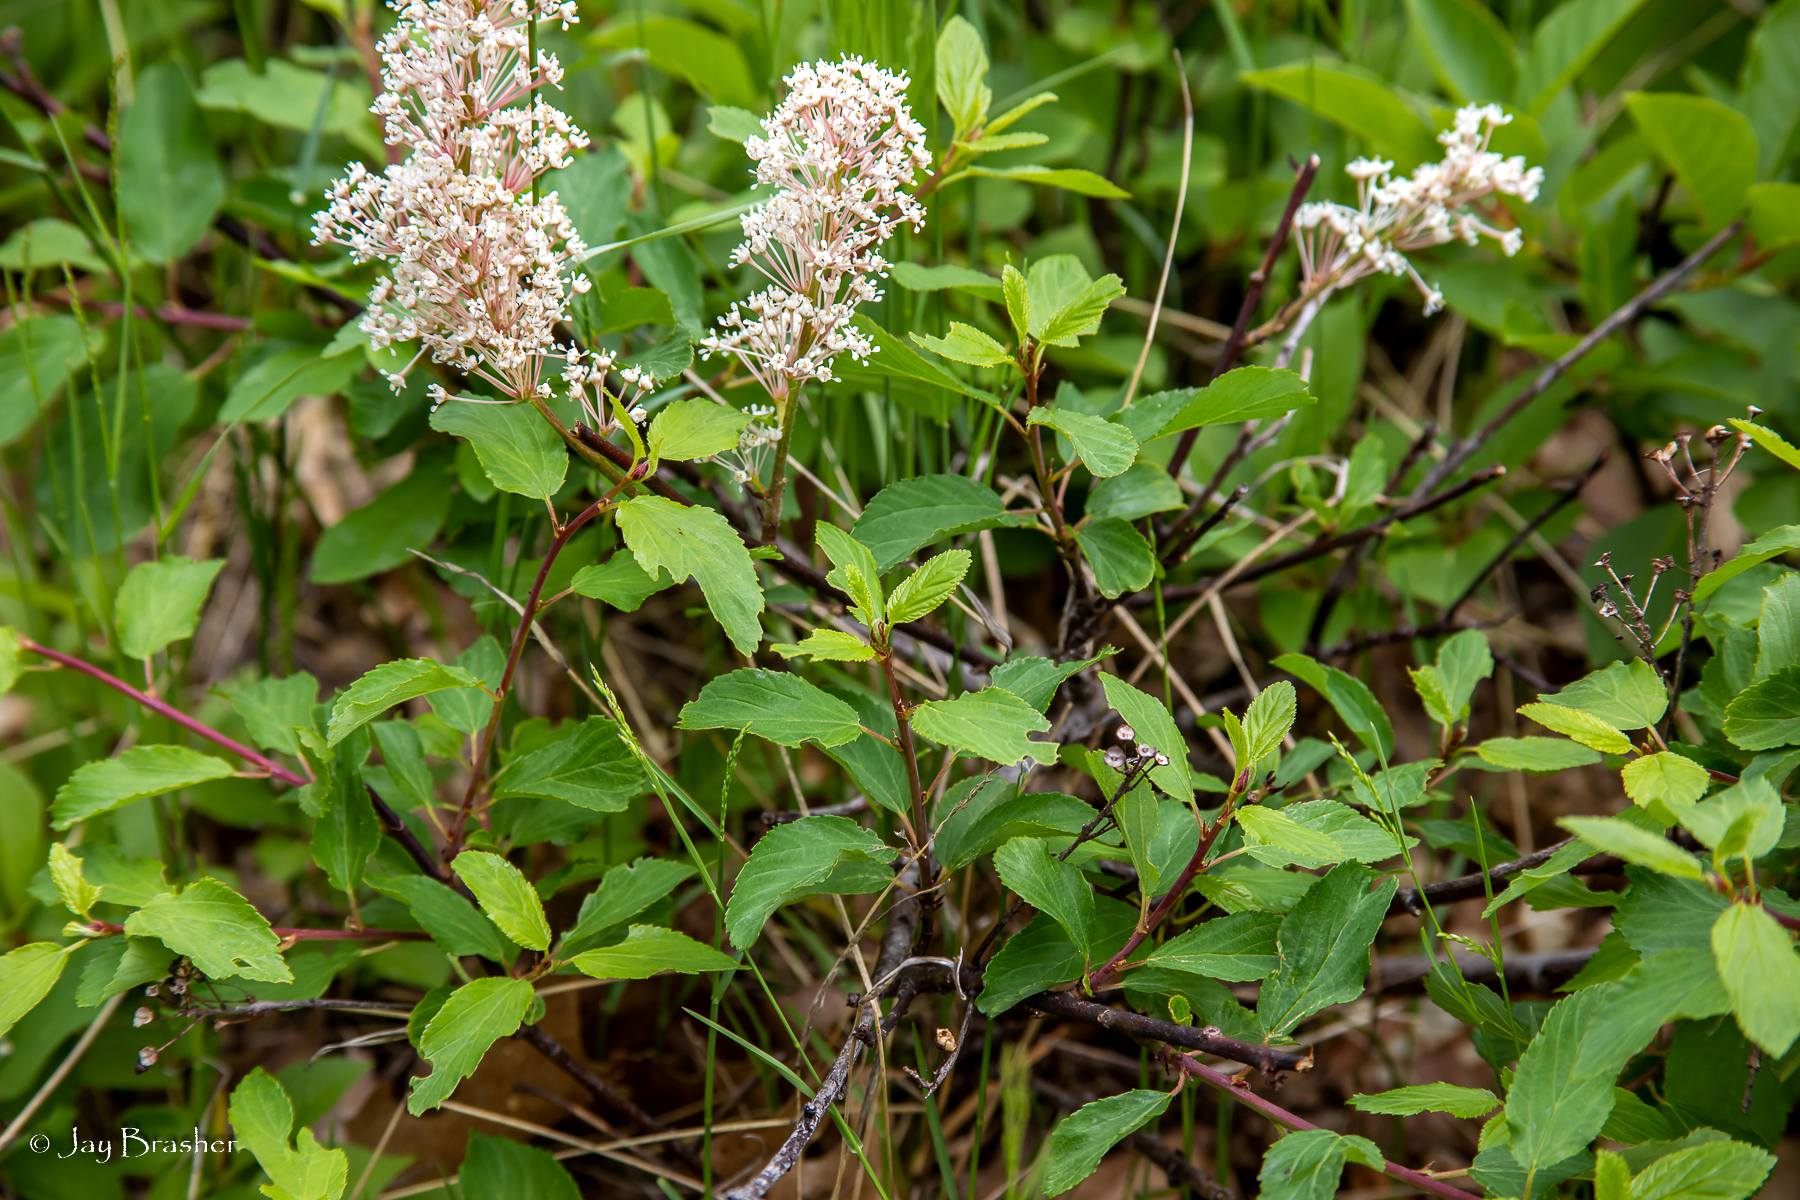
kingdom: Plantae
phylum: Tracheophyta
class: Magnoliopsida
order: Rosales
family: Rhamnaceae
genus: Ceanothus
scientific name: Ceanothus sanguineus
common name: Teatree
